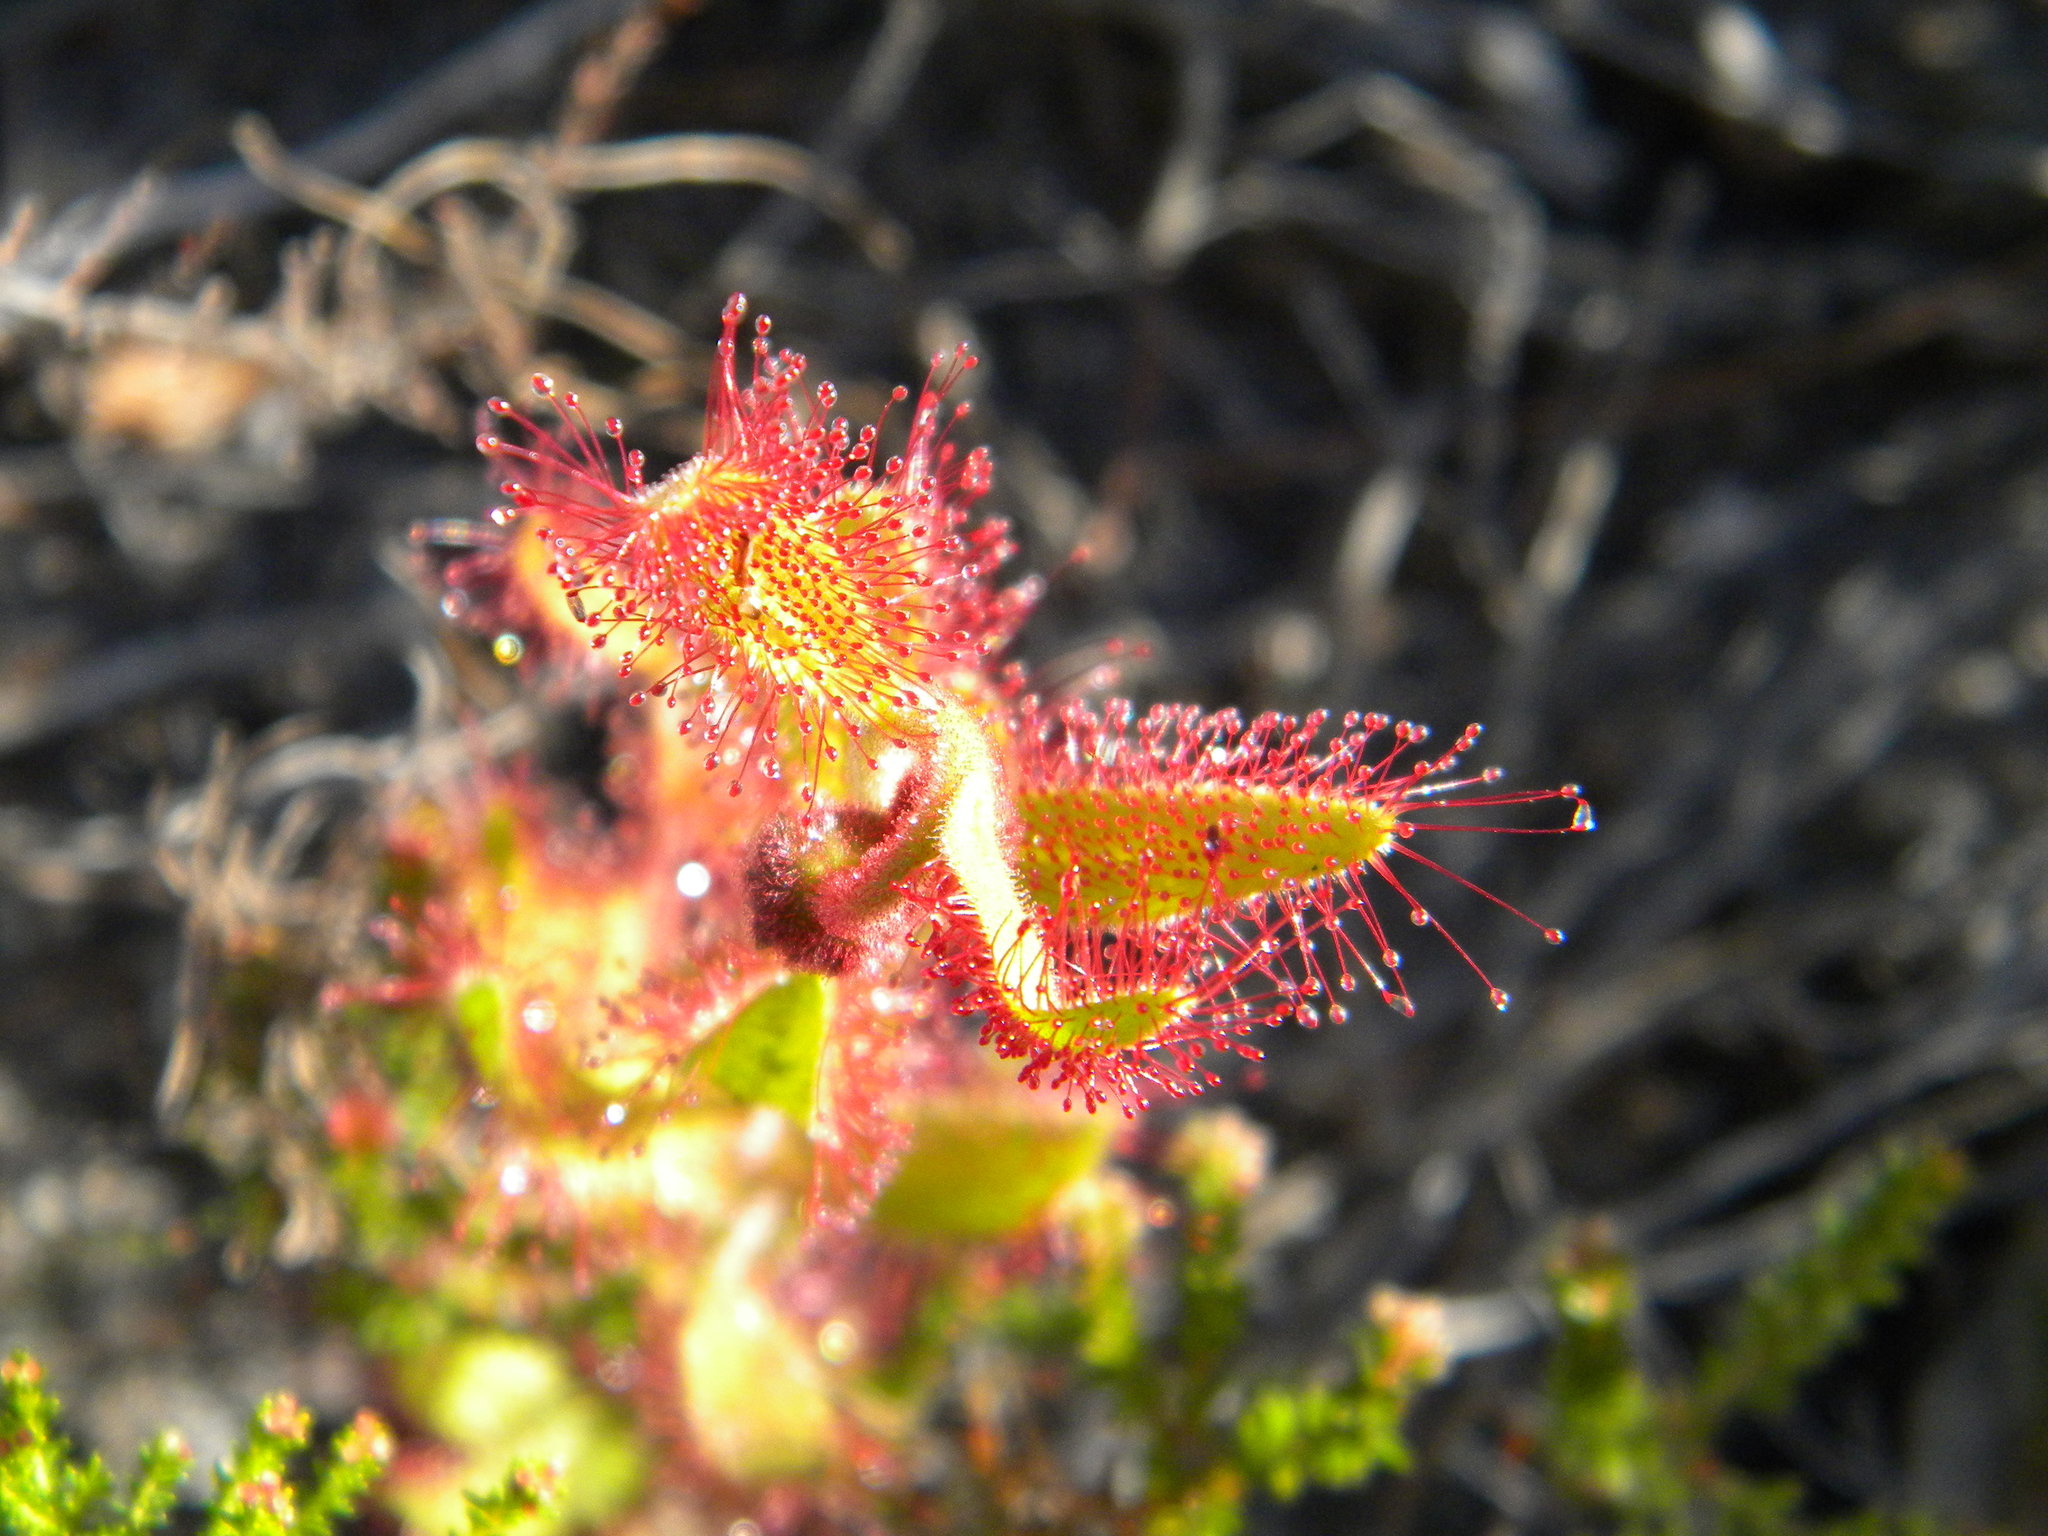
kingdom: Plantae
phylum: Tracheophyta
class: Magnoliopsida
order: Caryophyllales
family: Droseraceae
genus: Drosera
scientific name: Drosera cistiflora
